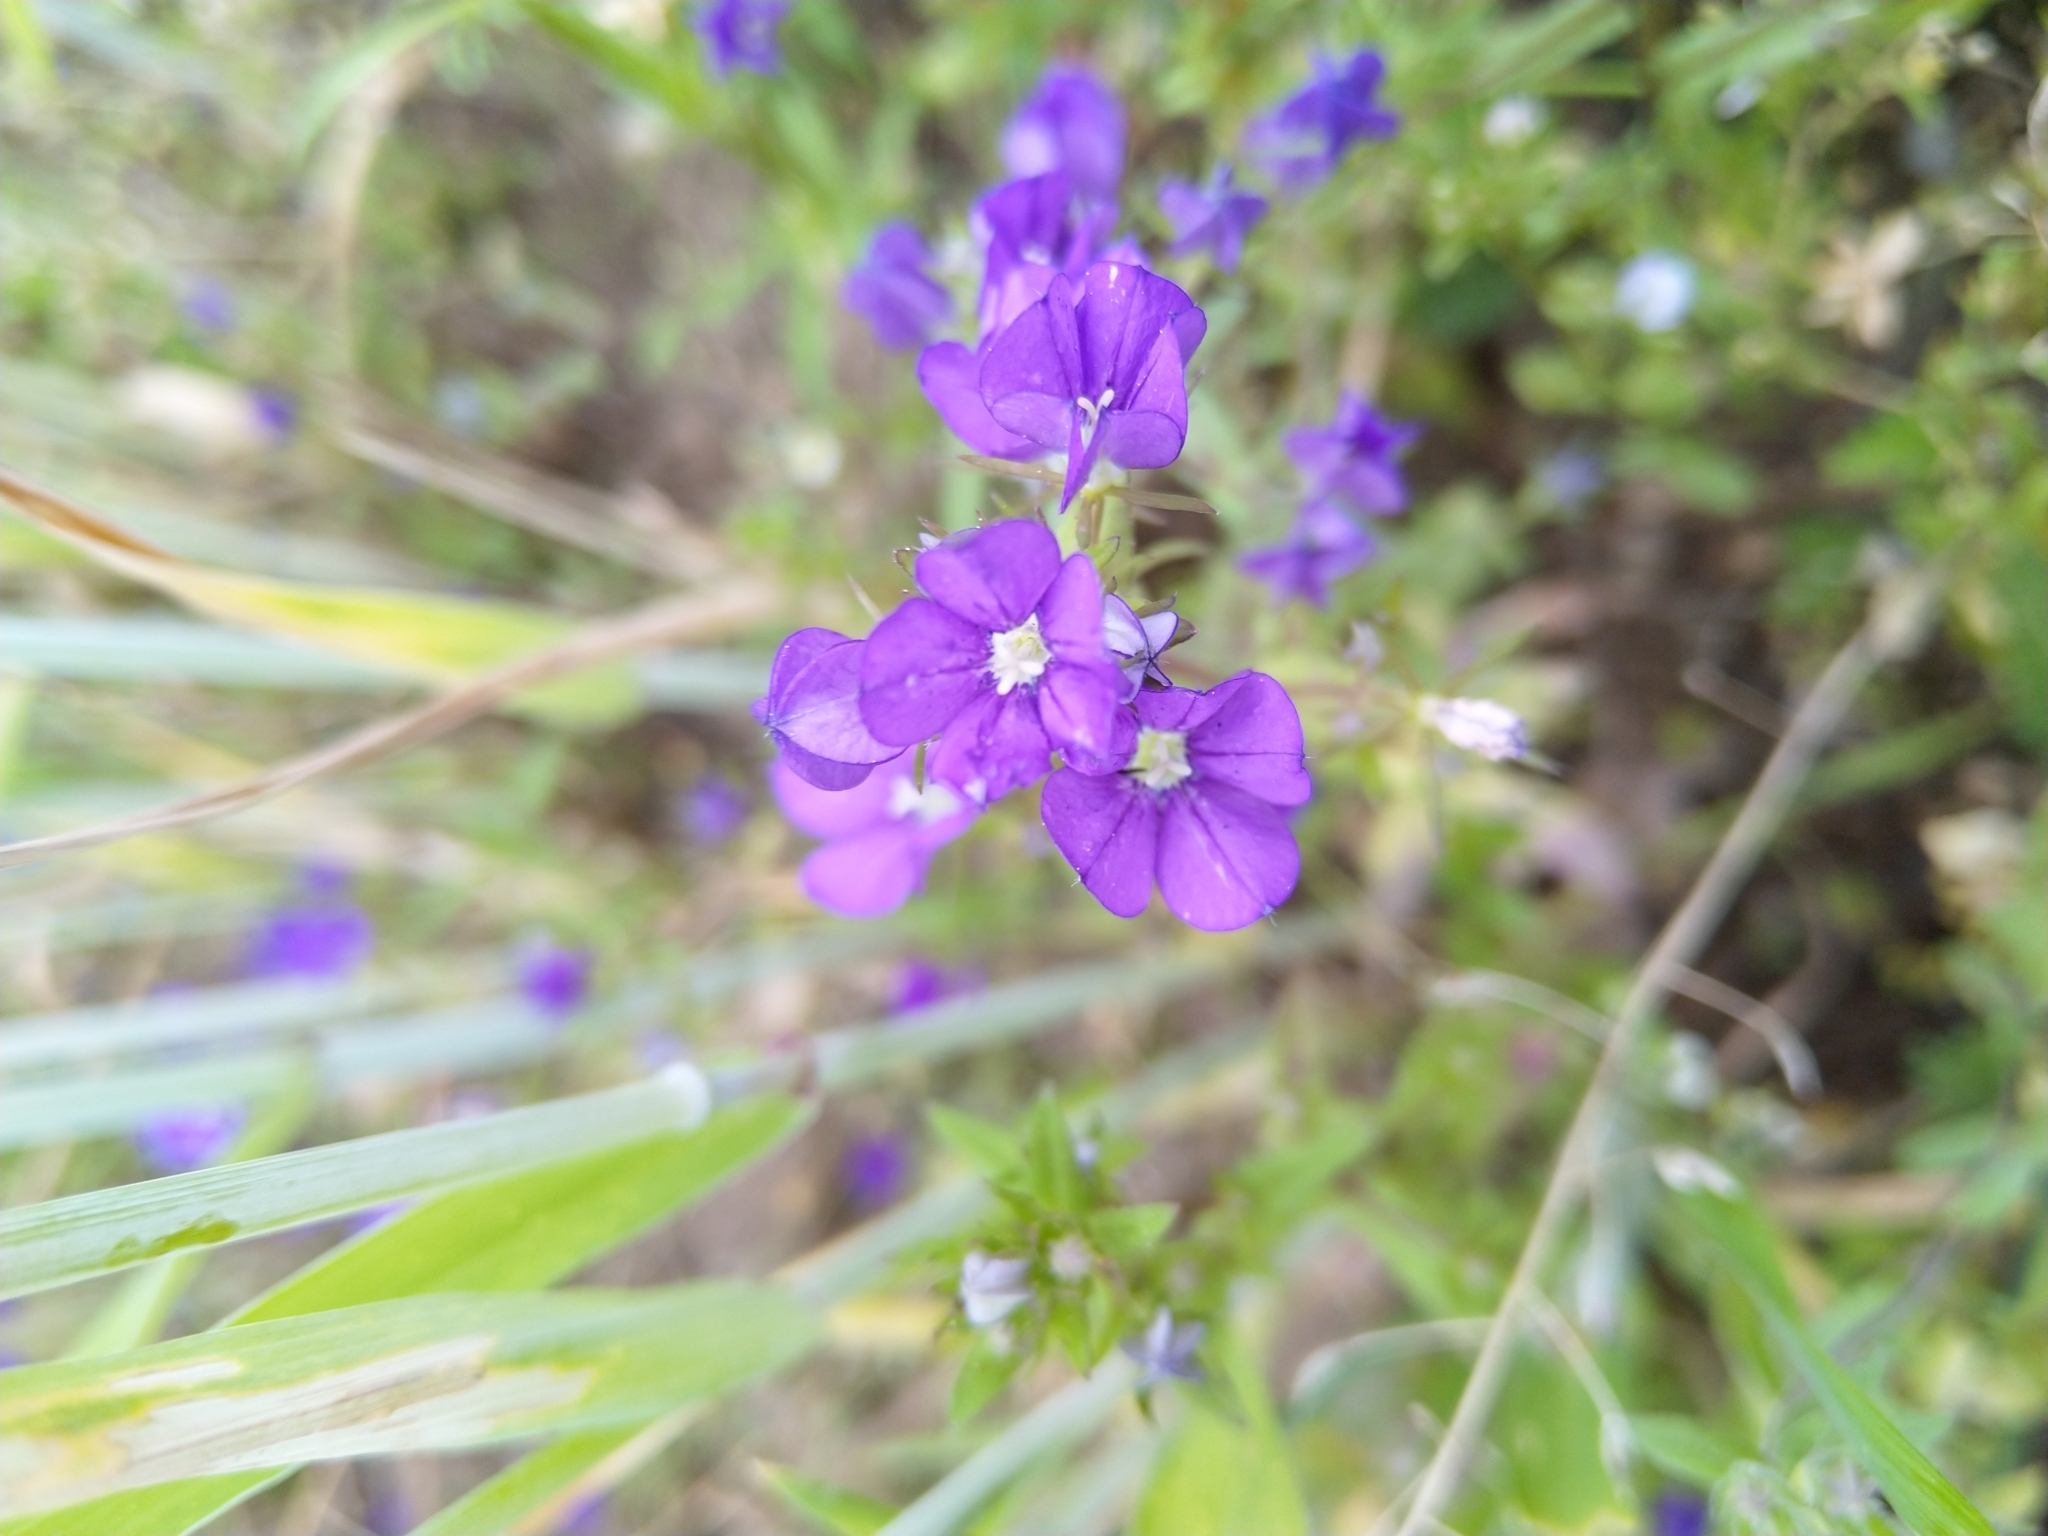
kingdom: Plantae
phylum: Tracheophyta
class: Magnoliopsida
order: Asterales
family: Campanulaceae
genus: Legousia
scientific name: Legousia speculum-veneris
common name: Large venus's-looking-glass
